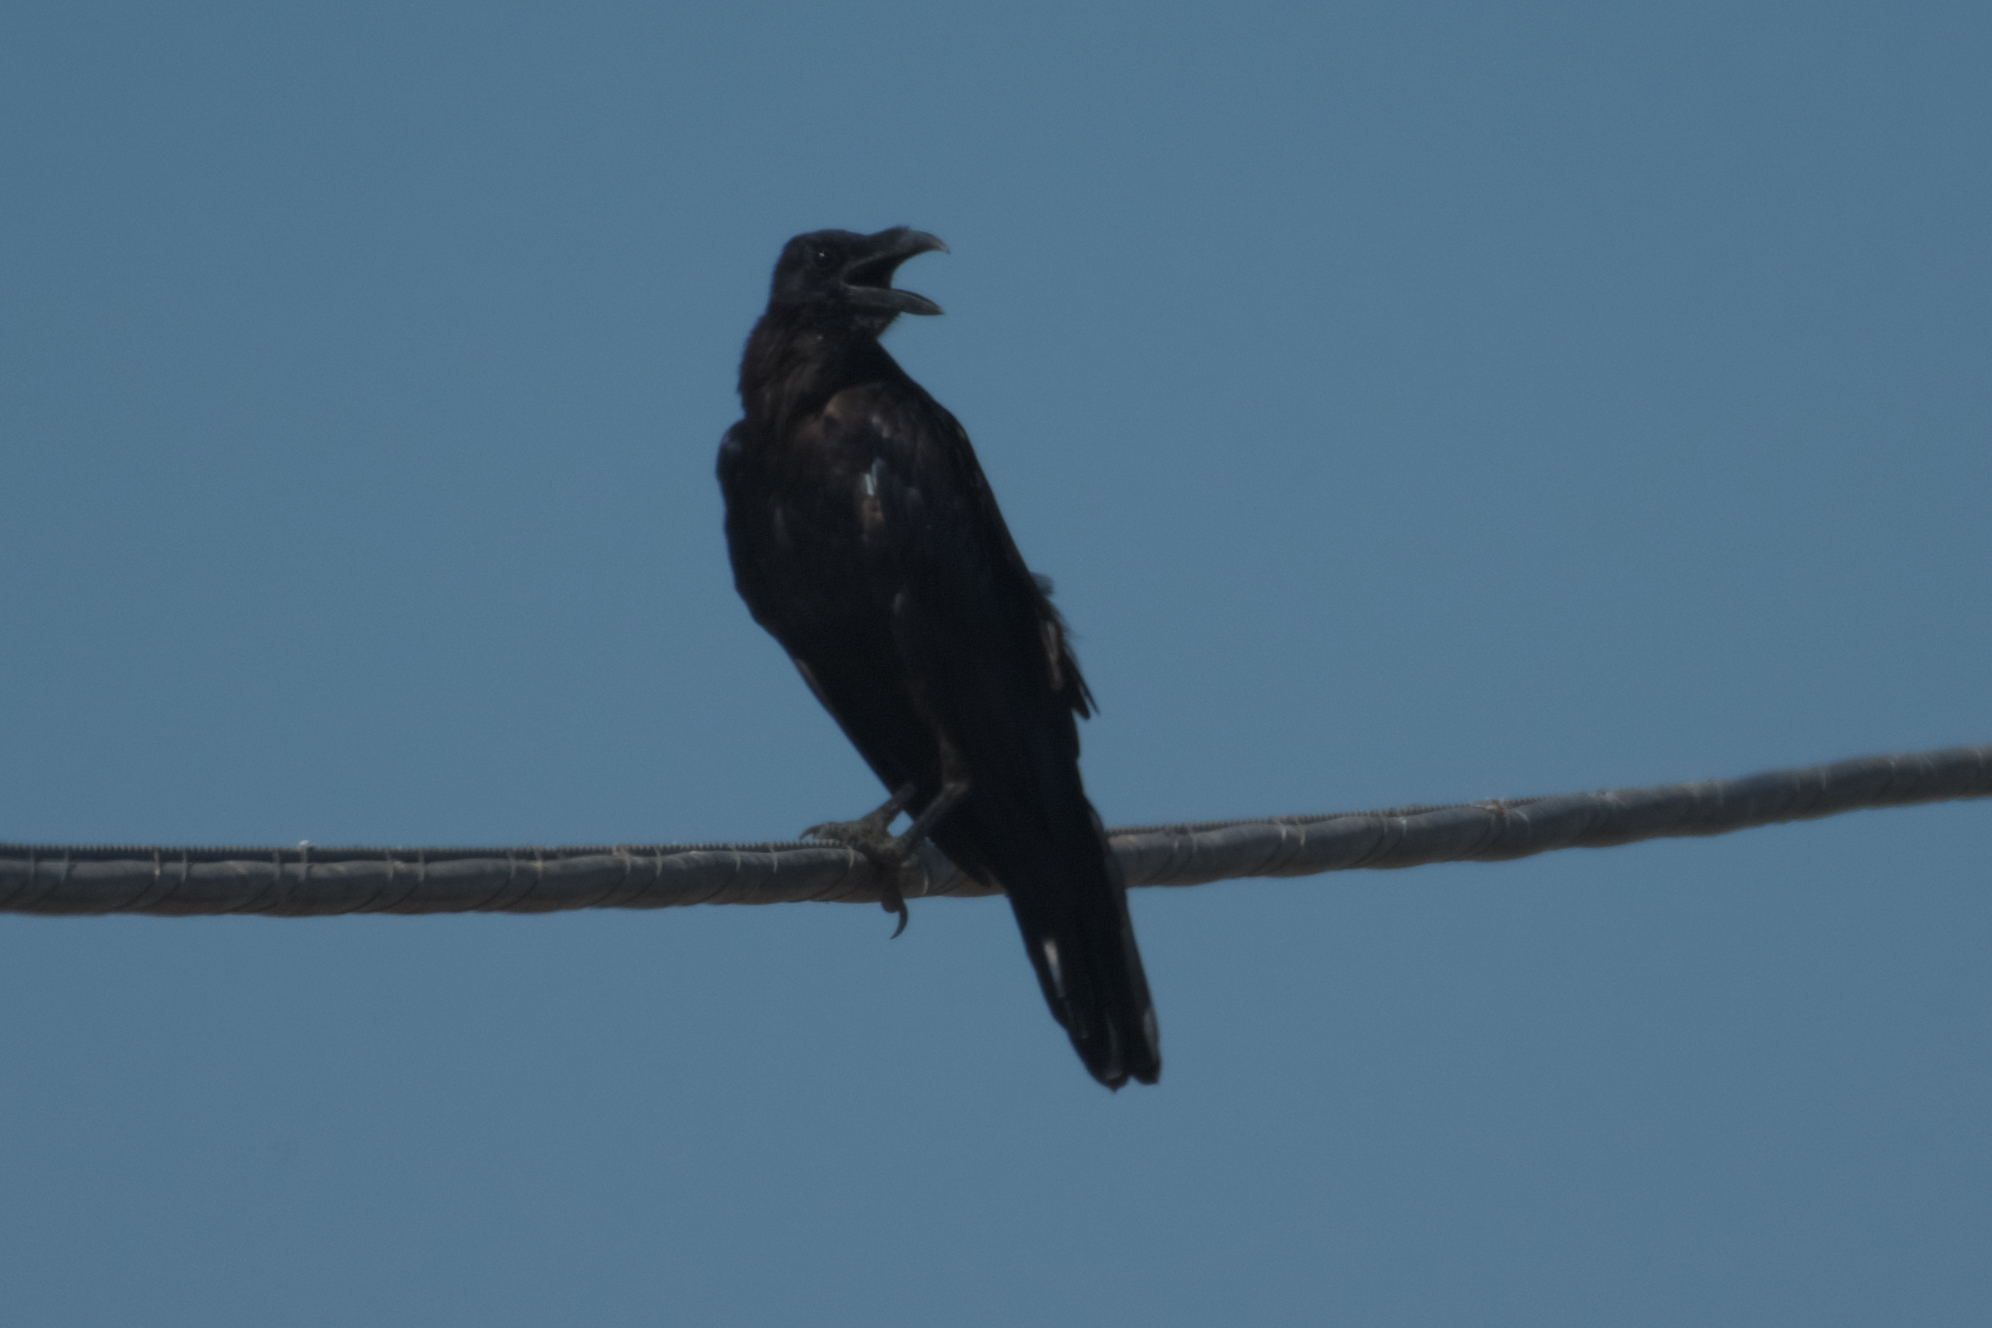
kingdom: Animalia
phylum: Chordata
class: Aves
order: Passeriformes
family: Corvidae
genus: Corvus
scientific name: Corvus corax
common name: Common raven
